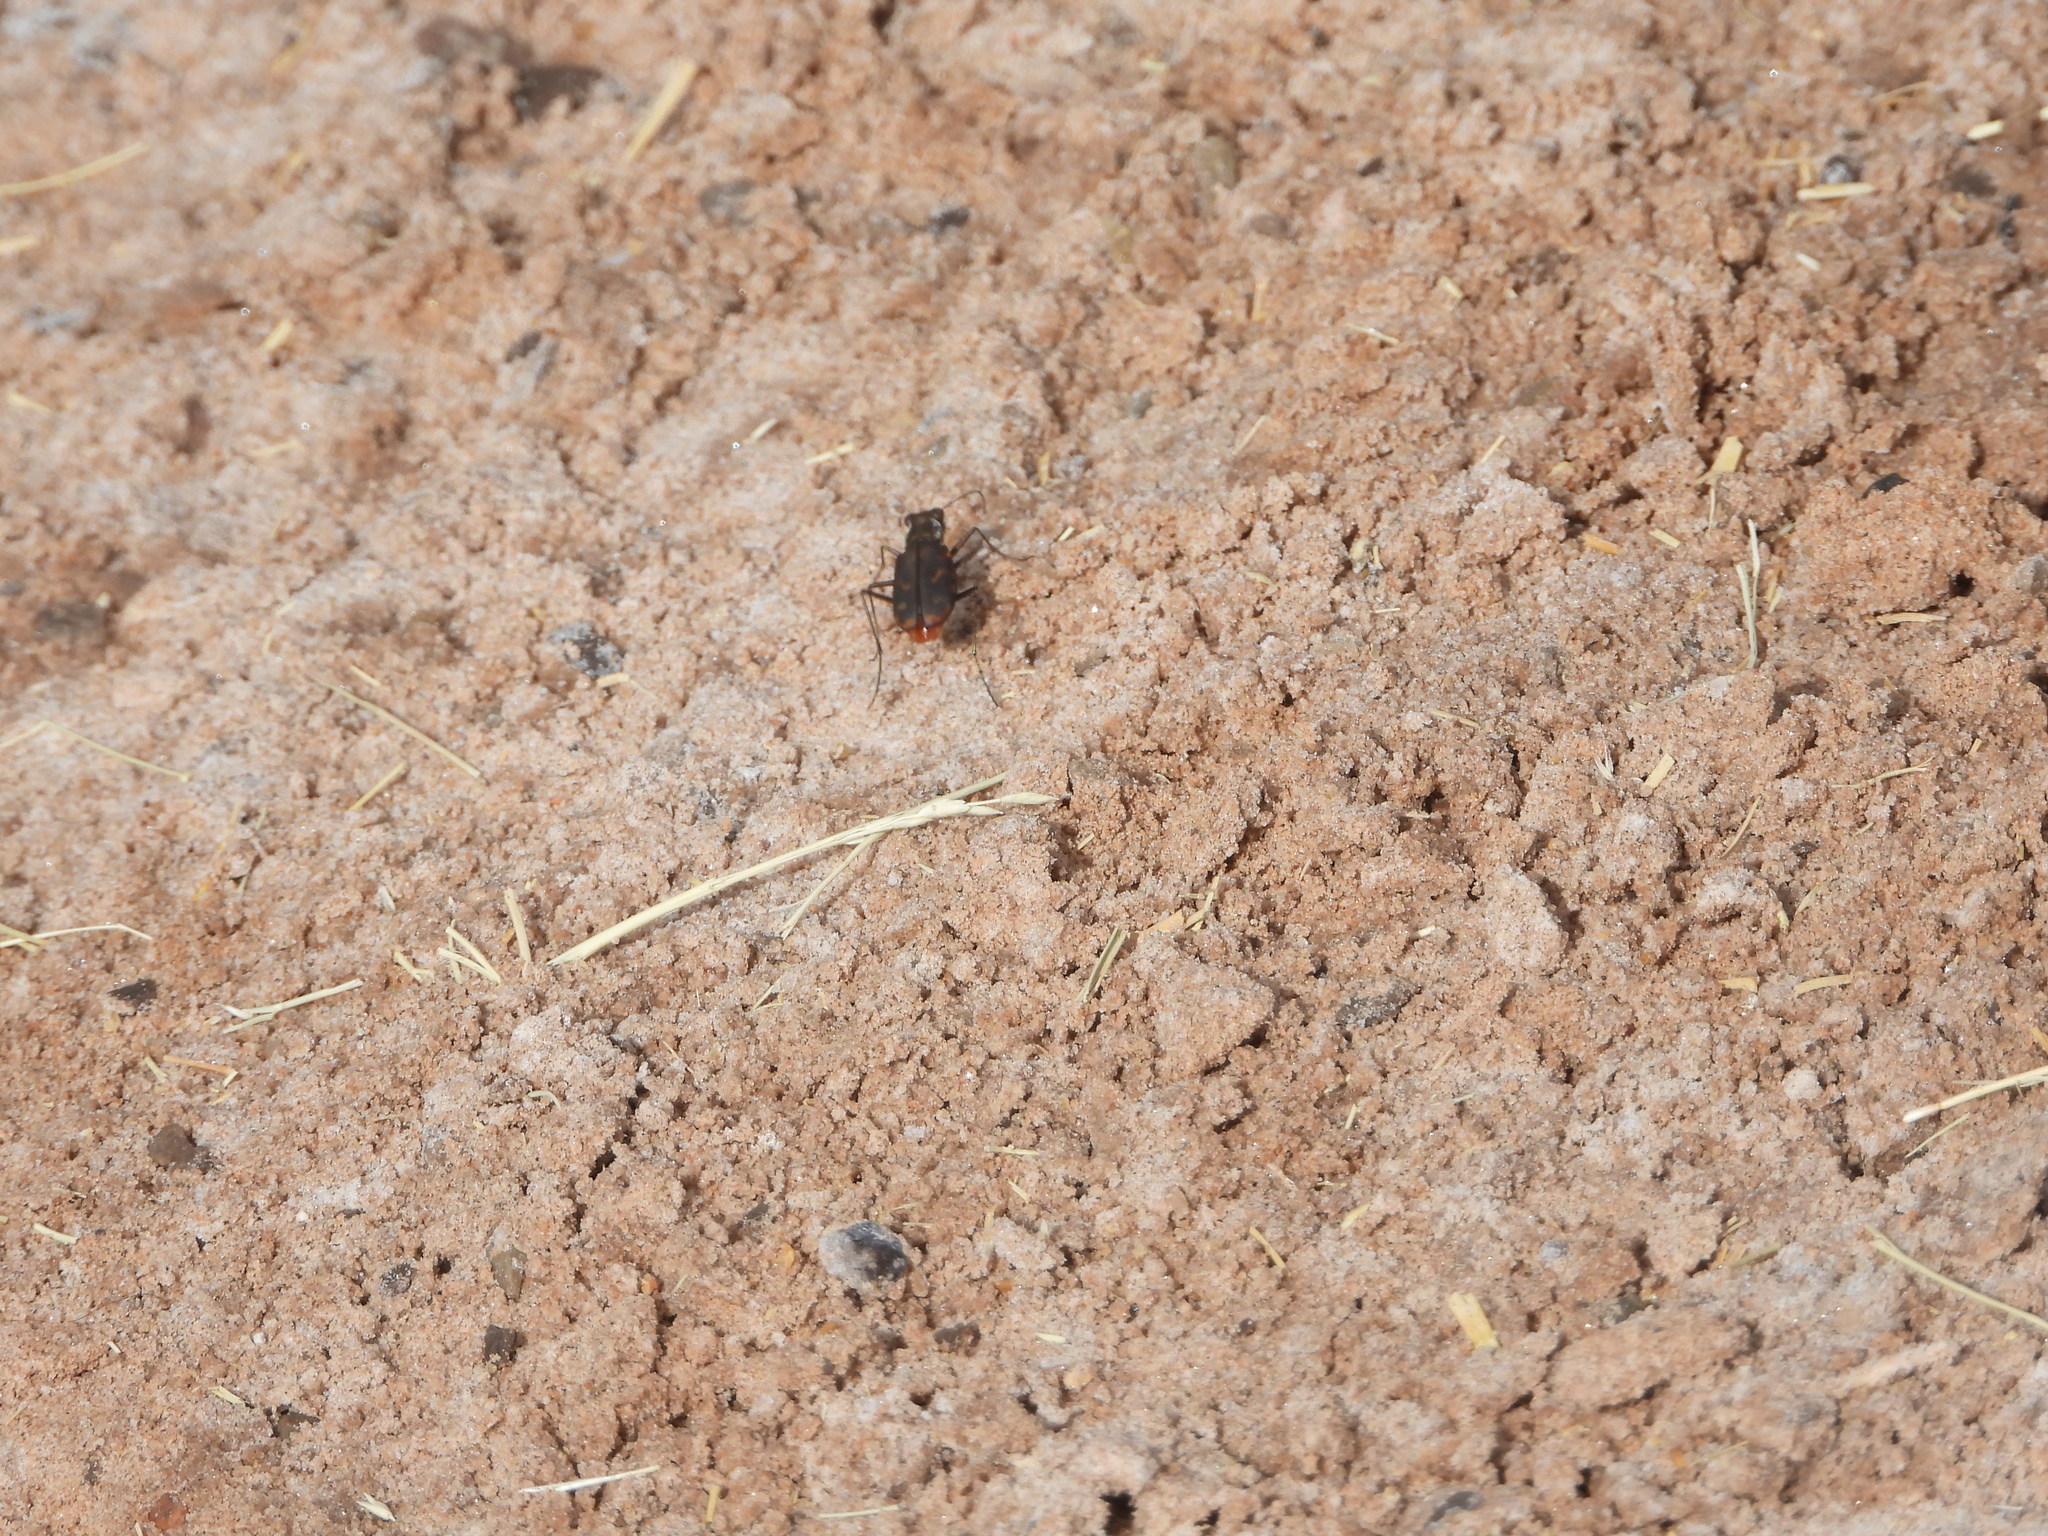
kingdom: Animalia
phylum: Arthropoda
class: Insecta
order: Coleoptera
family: Carabidae
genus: Cicindela
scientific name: Cicindela hemorrhagica
